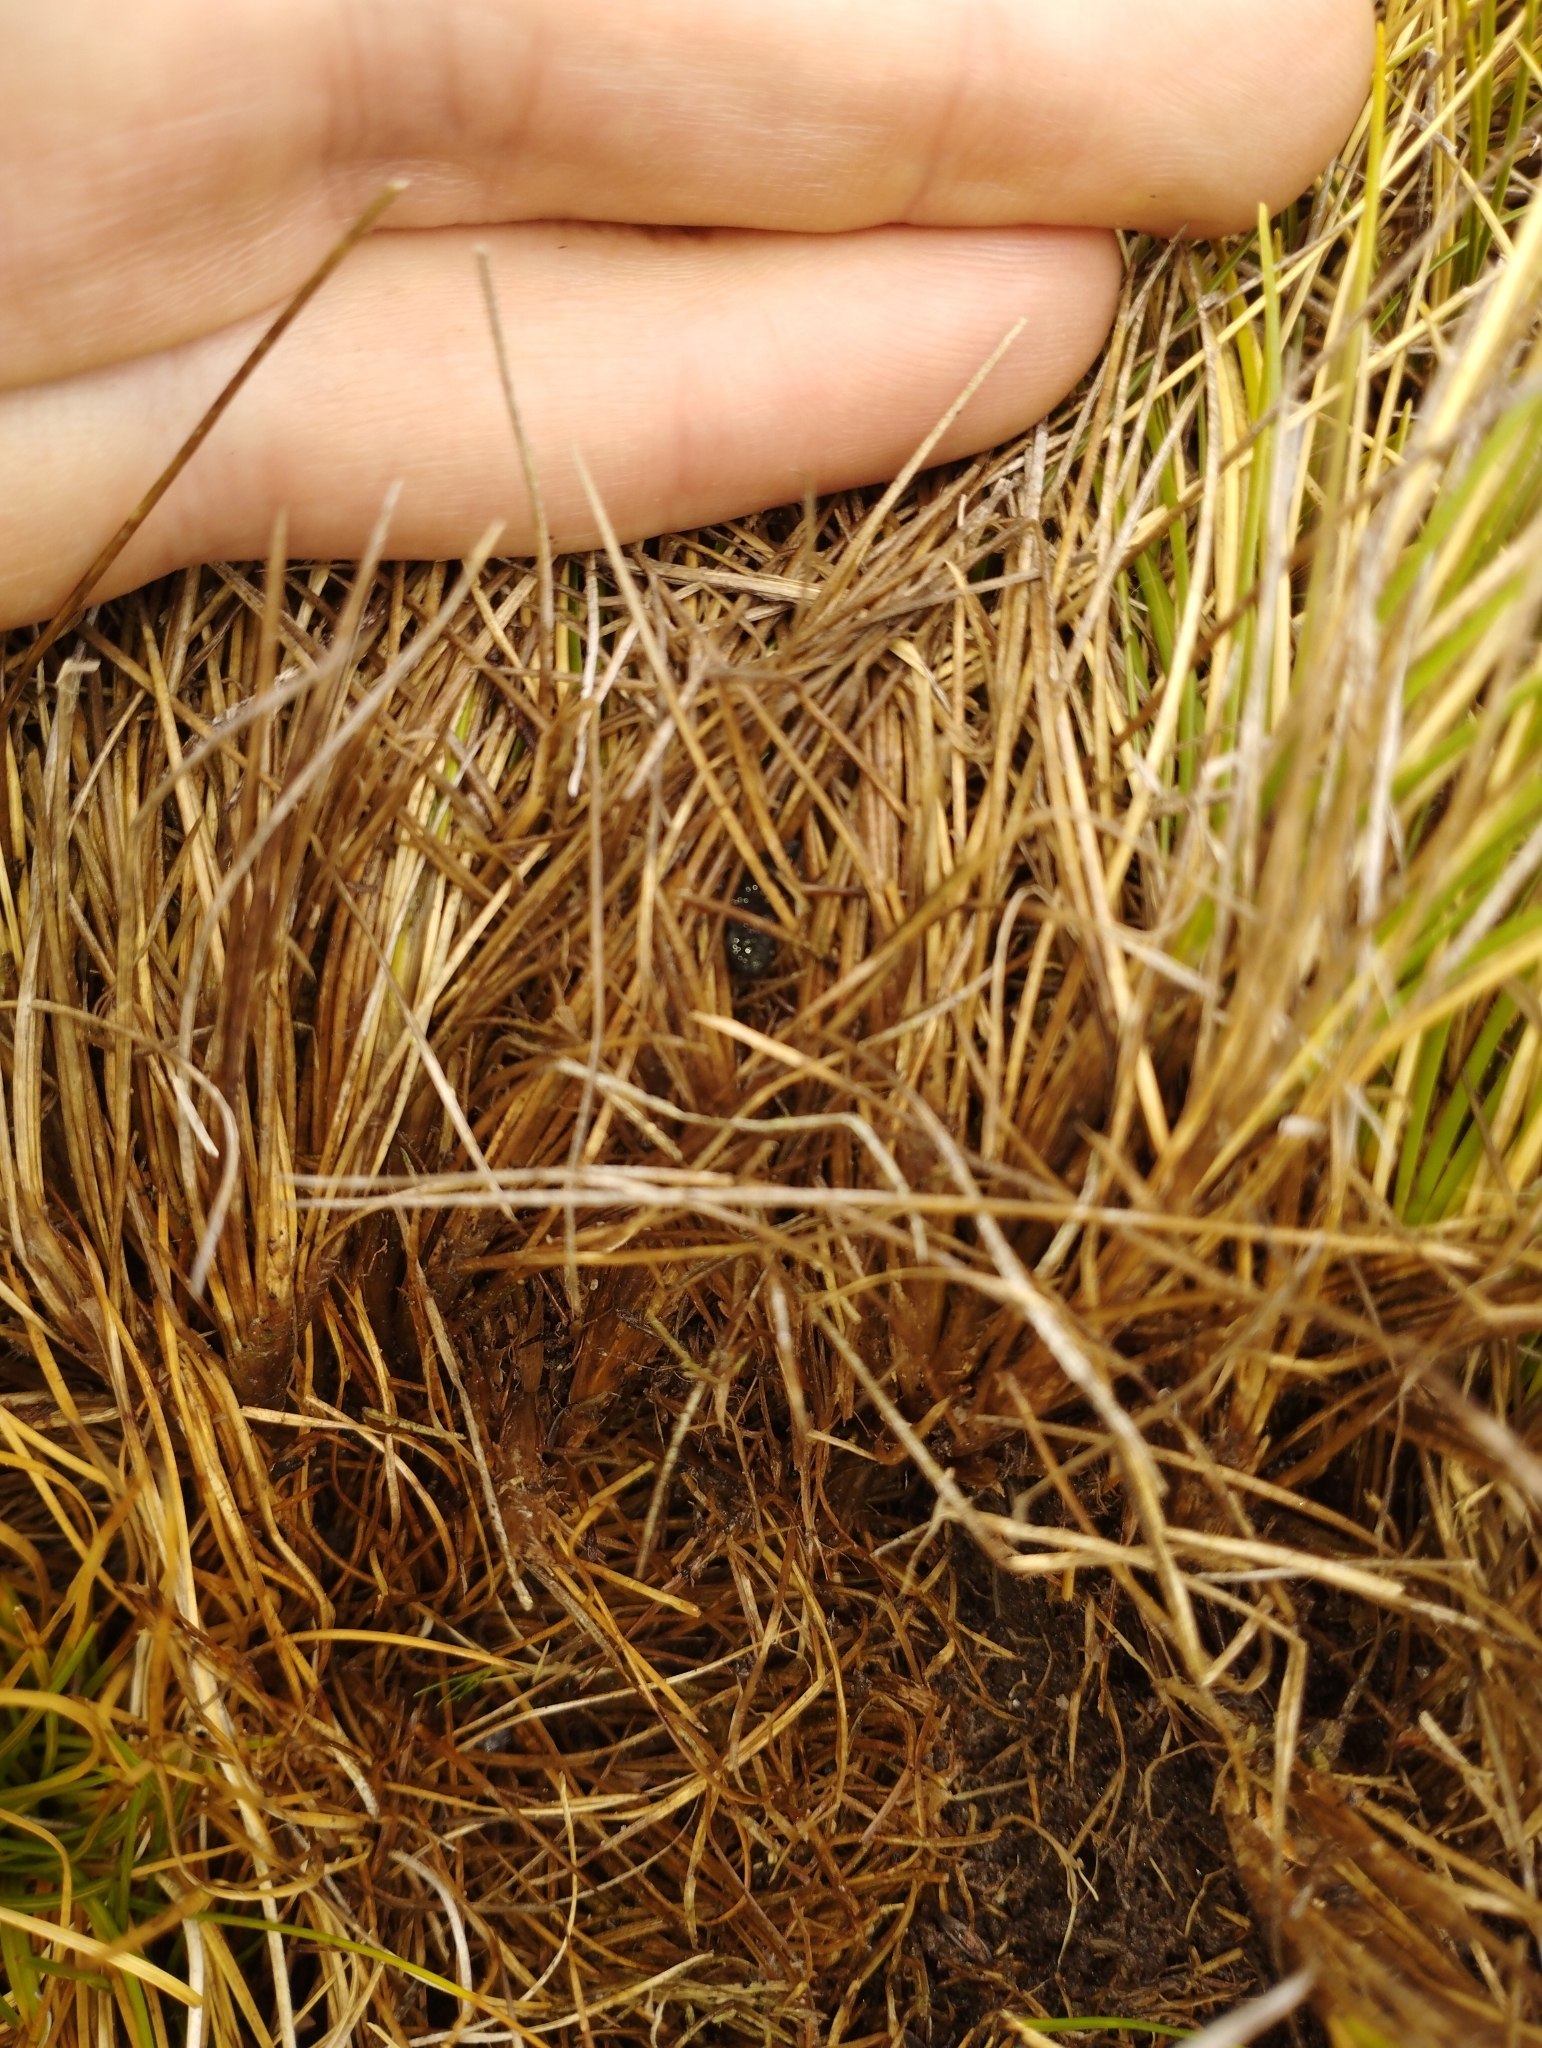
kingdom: Plantae
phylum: Tracheophyta
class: Liliopsida
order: Poales
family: Poaceae
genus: Chionochloa
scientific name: Chionochloa australis
